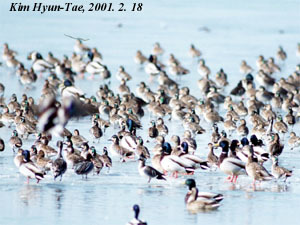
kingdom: Animalia
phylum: Chordata
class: Aves
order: Anseriformes
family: Anatidae
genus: Sibirionetta
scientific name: Sibirionetta formosa
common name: Baikal teal
